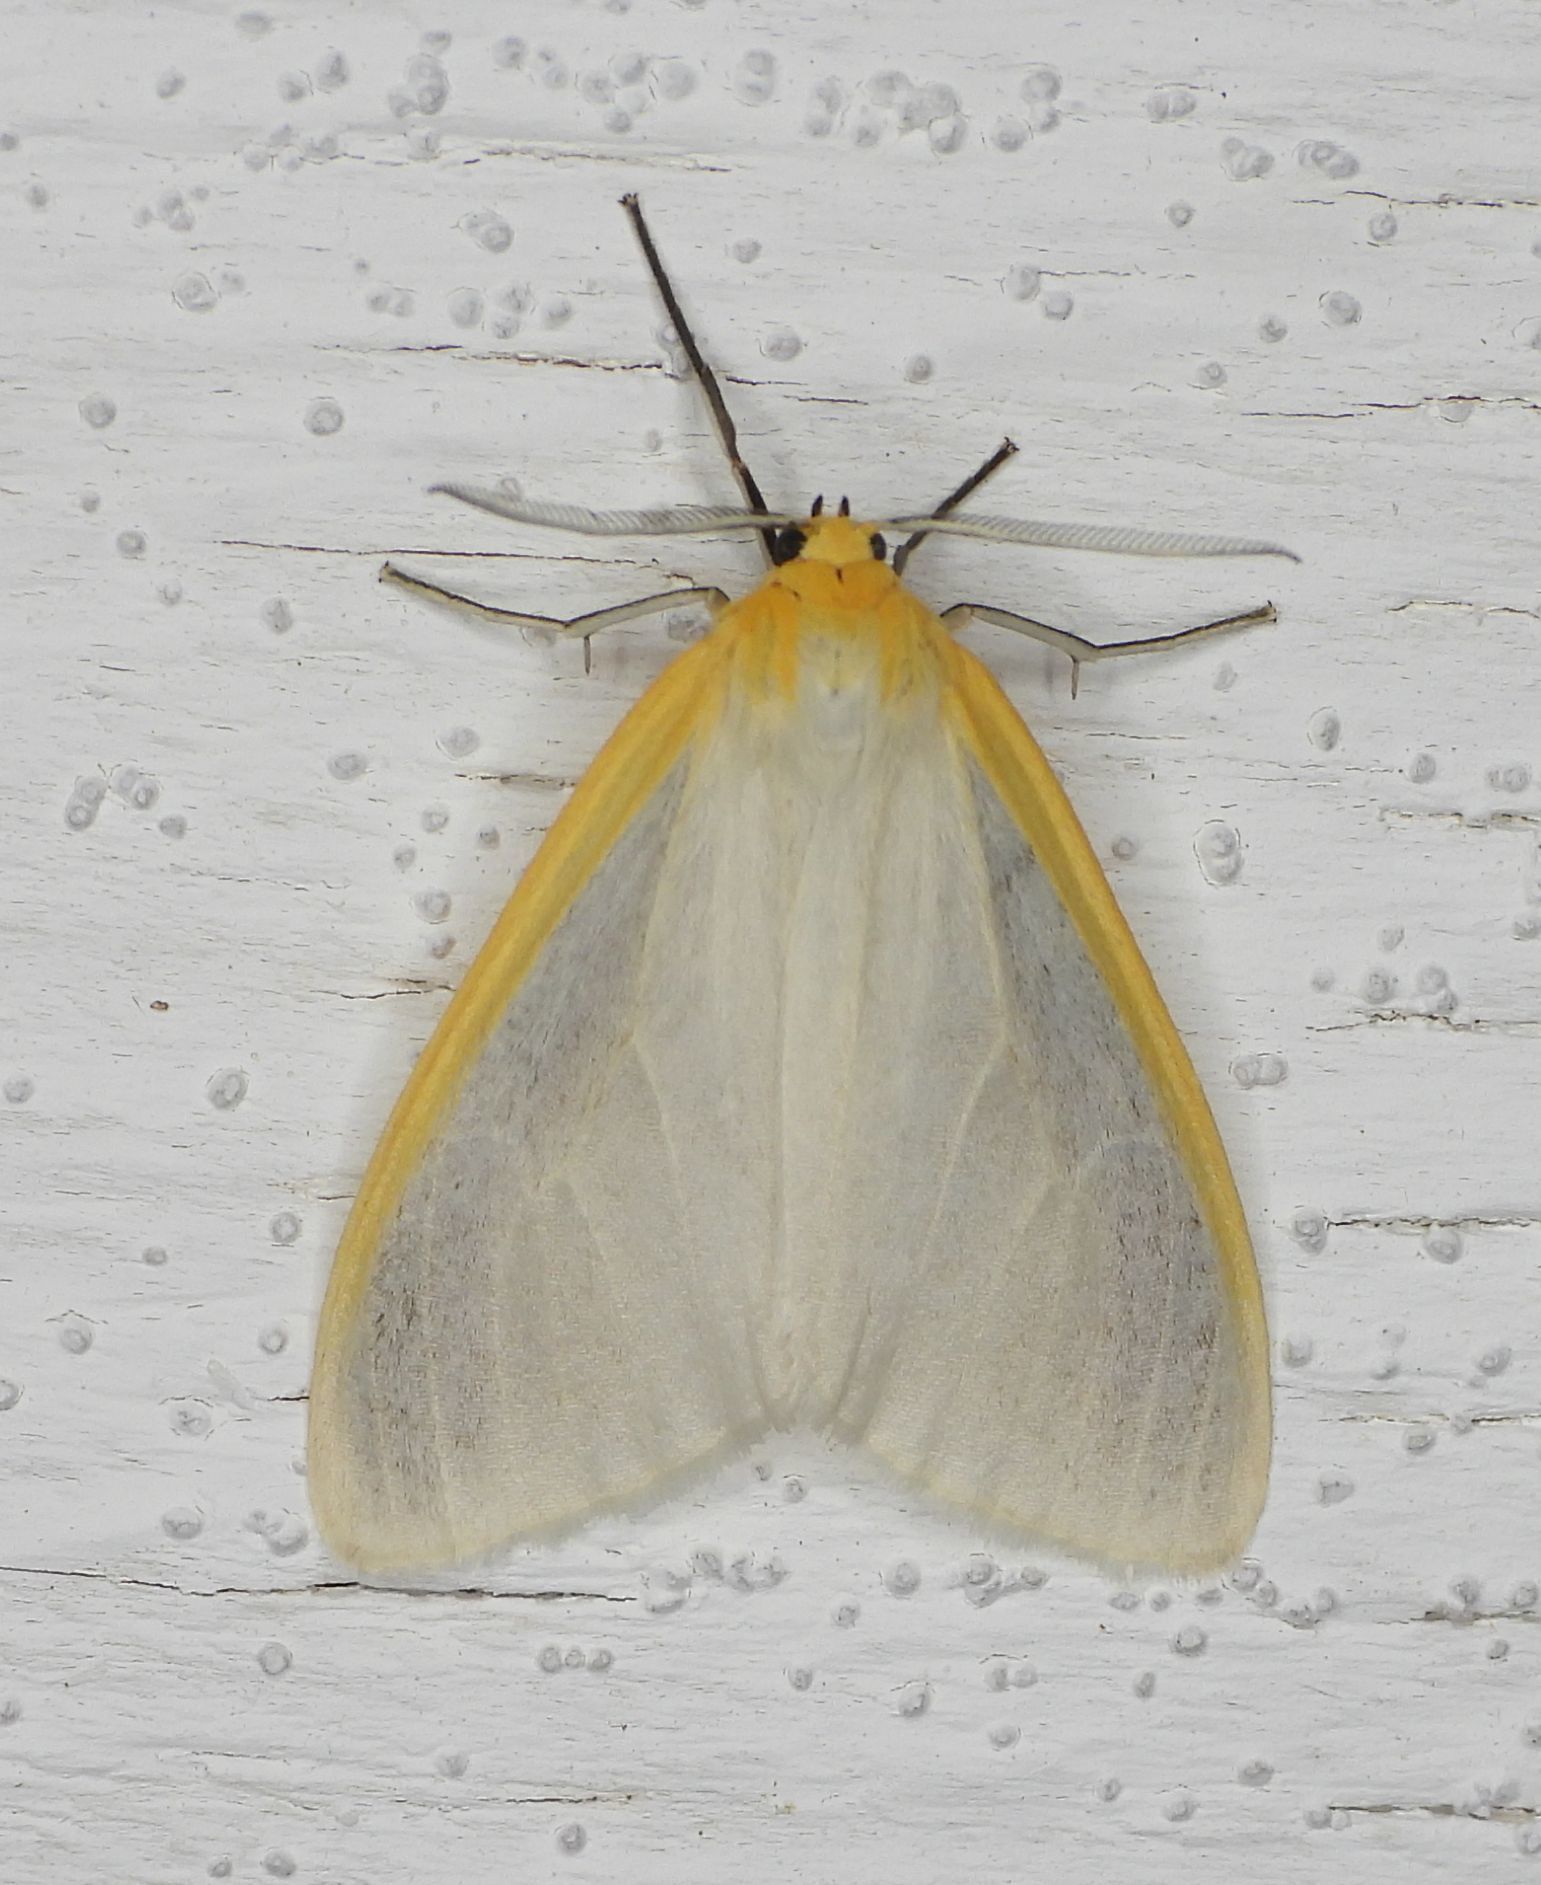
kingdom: Animalia
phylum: Arthropoda
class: Insecta
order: Lepidoptera
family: Erebidae
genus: Cycnia
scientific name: Cycnia tenera
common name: Delicate cycnia moth
